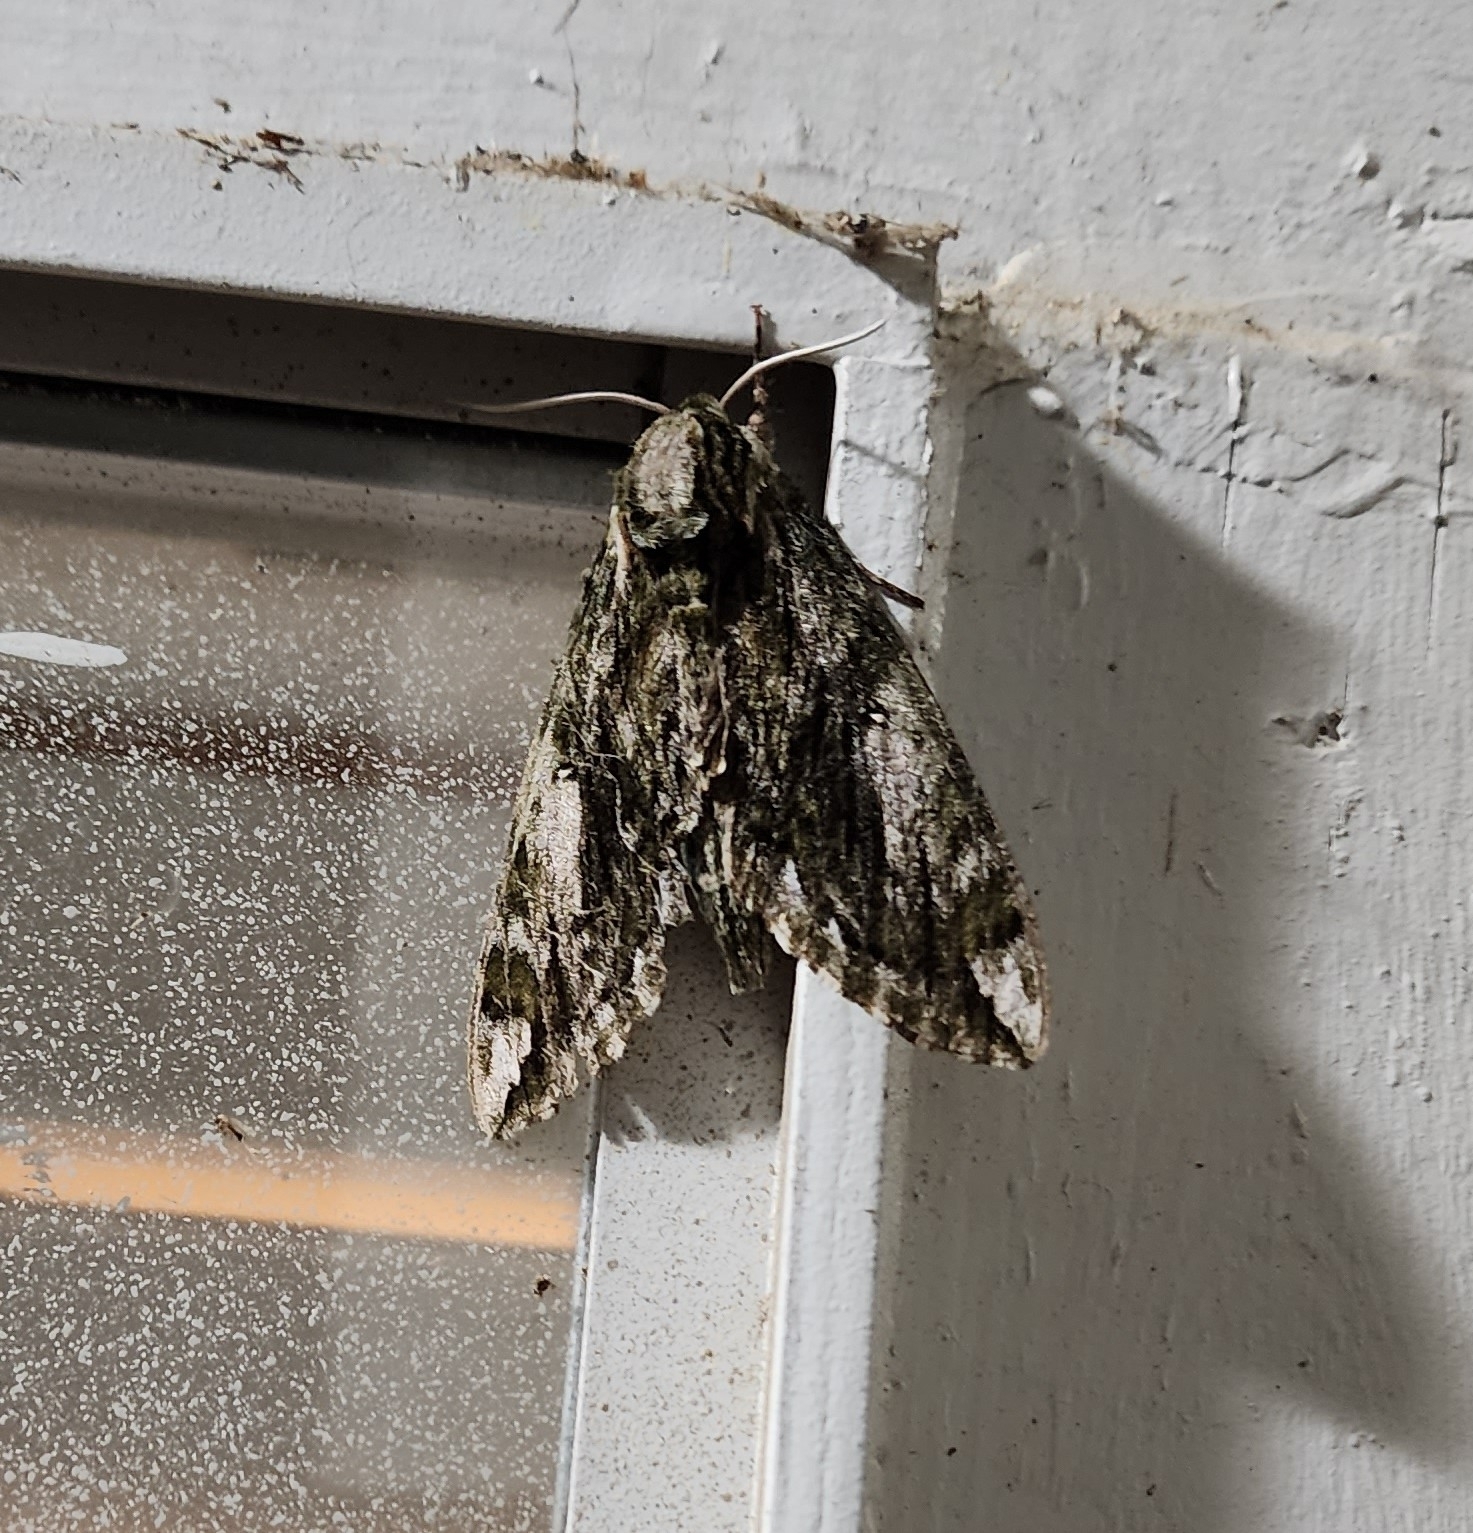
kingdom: Animalia
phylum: Arthropoda
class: Insecta
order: Lepidoptera
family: Sphingidae
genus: Ceratomia
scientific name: Ceratomia hageni
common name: Hagen's sphinx
